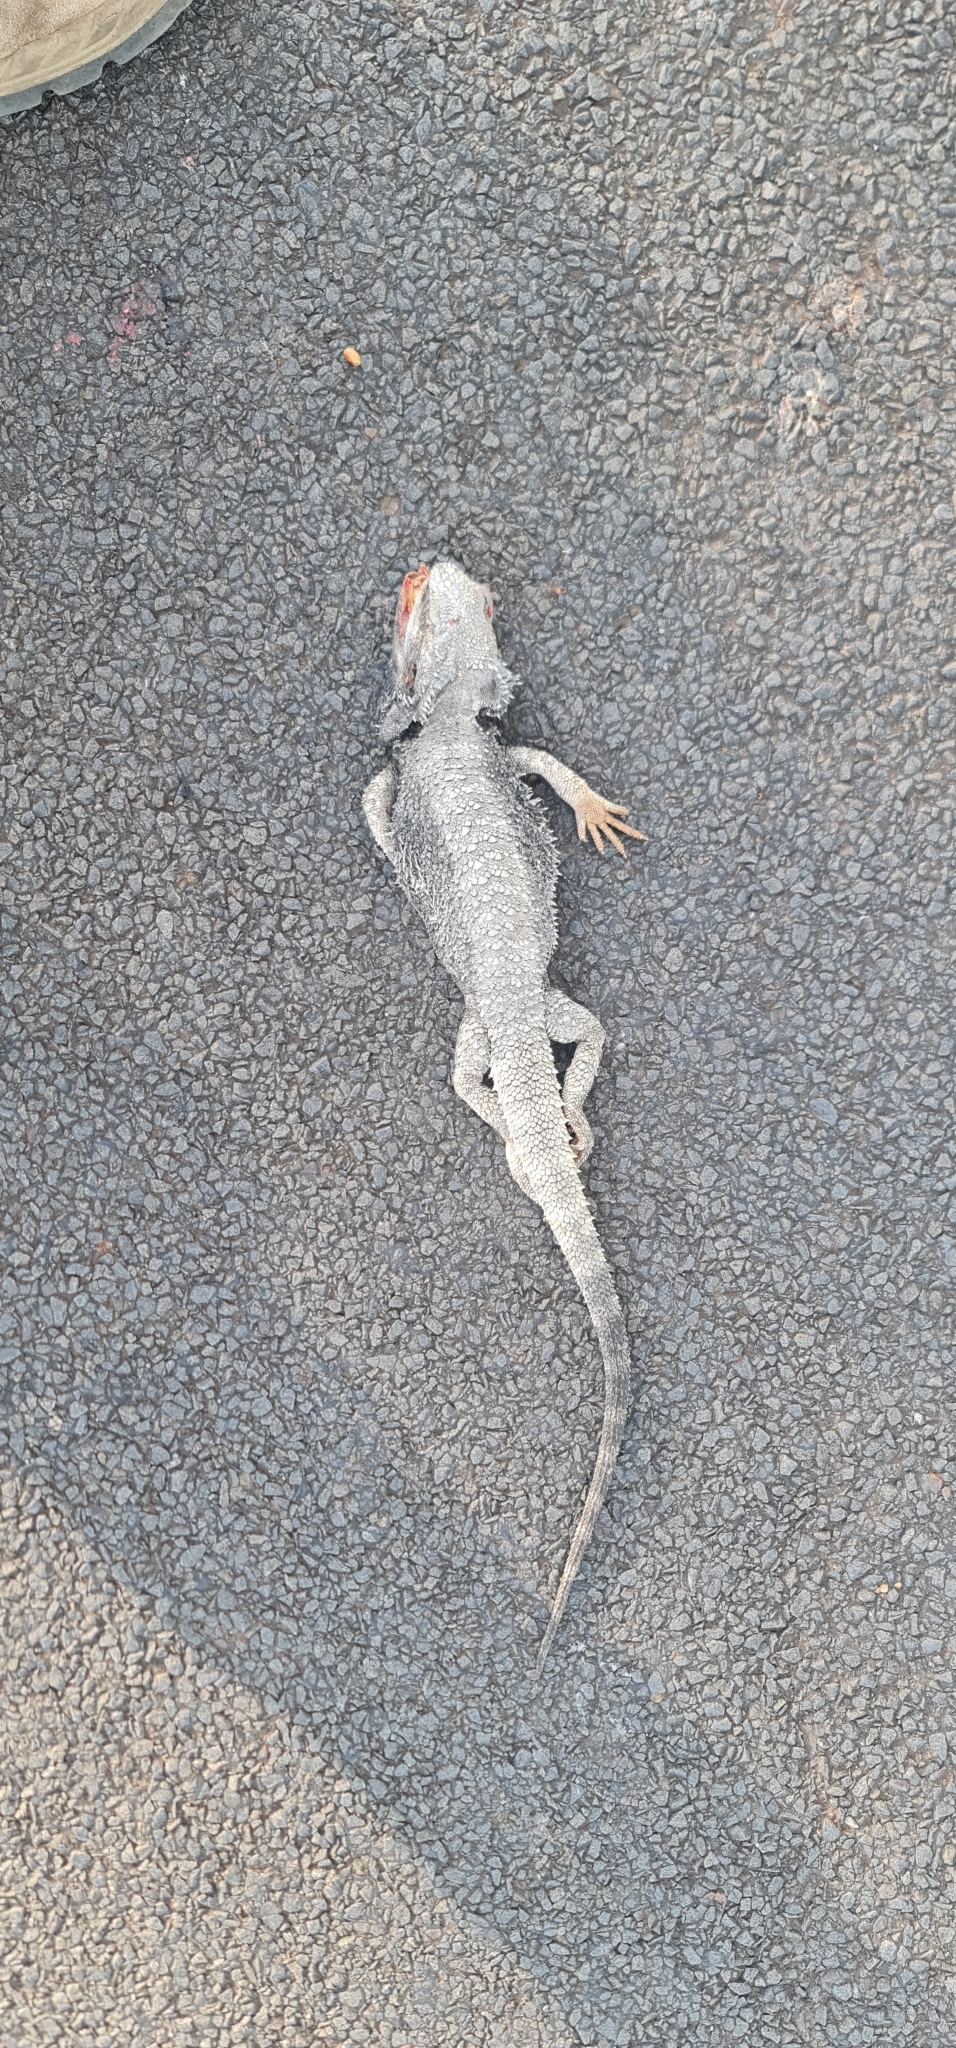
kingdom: Animalia
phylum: Chordata
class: Squamata
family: Agamidae
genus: Pogona
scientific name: Pogona barbata
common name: Bearded dragon
